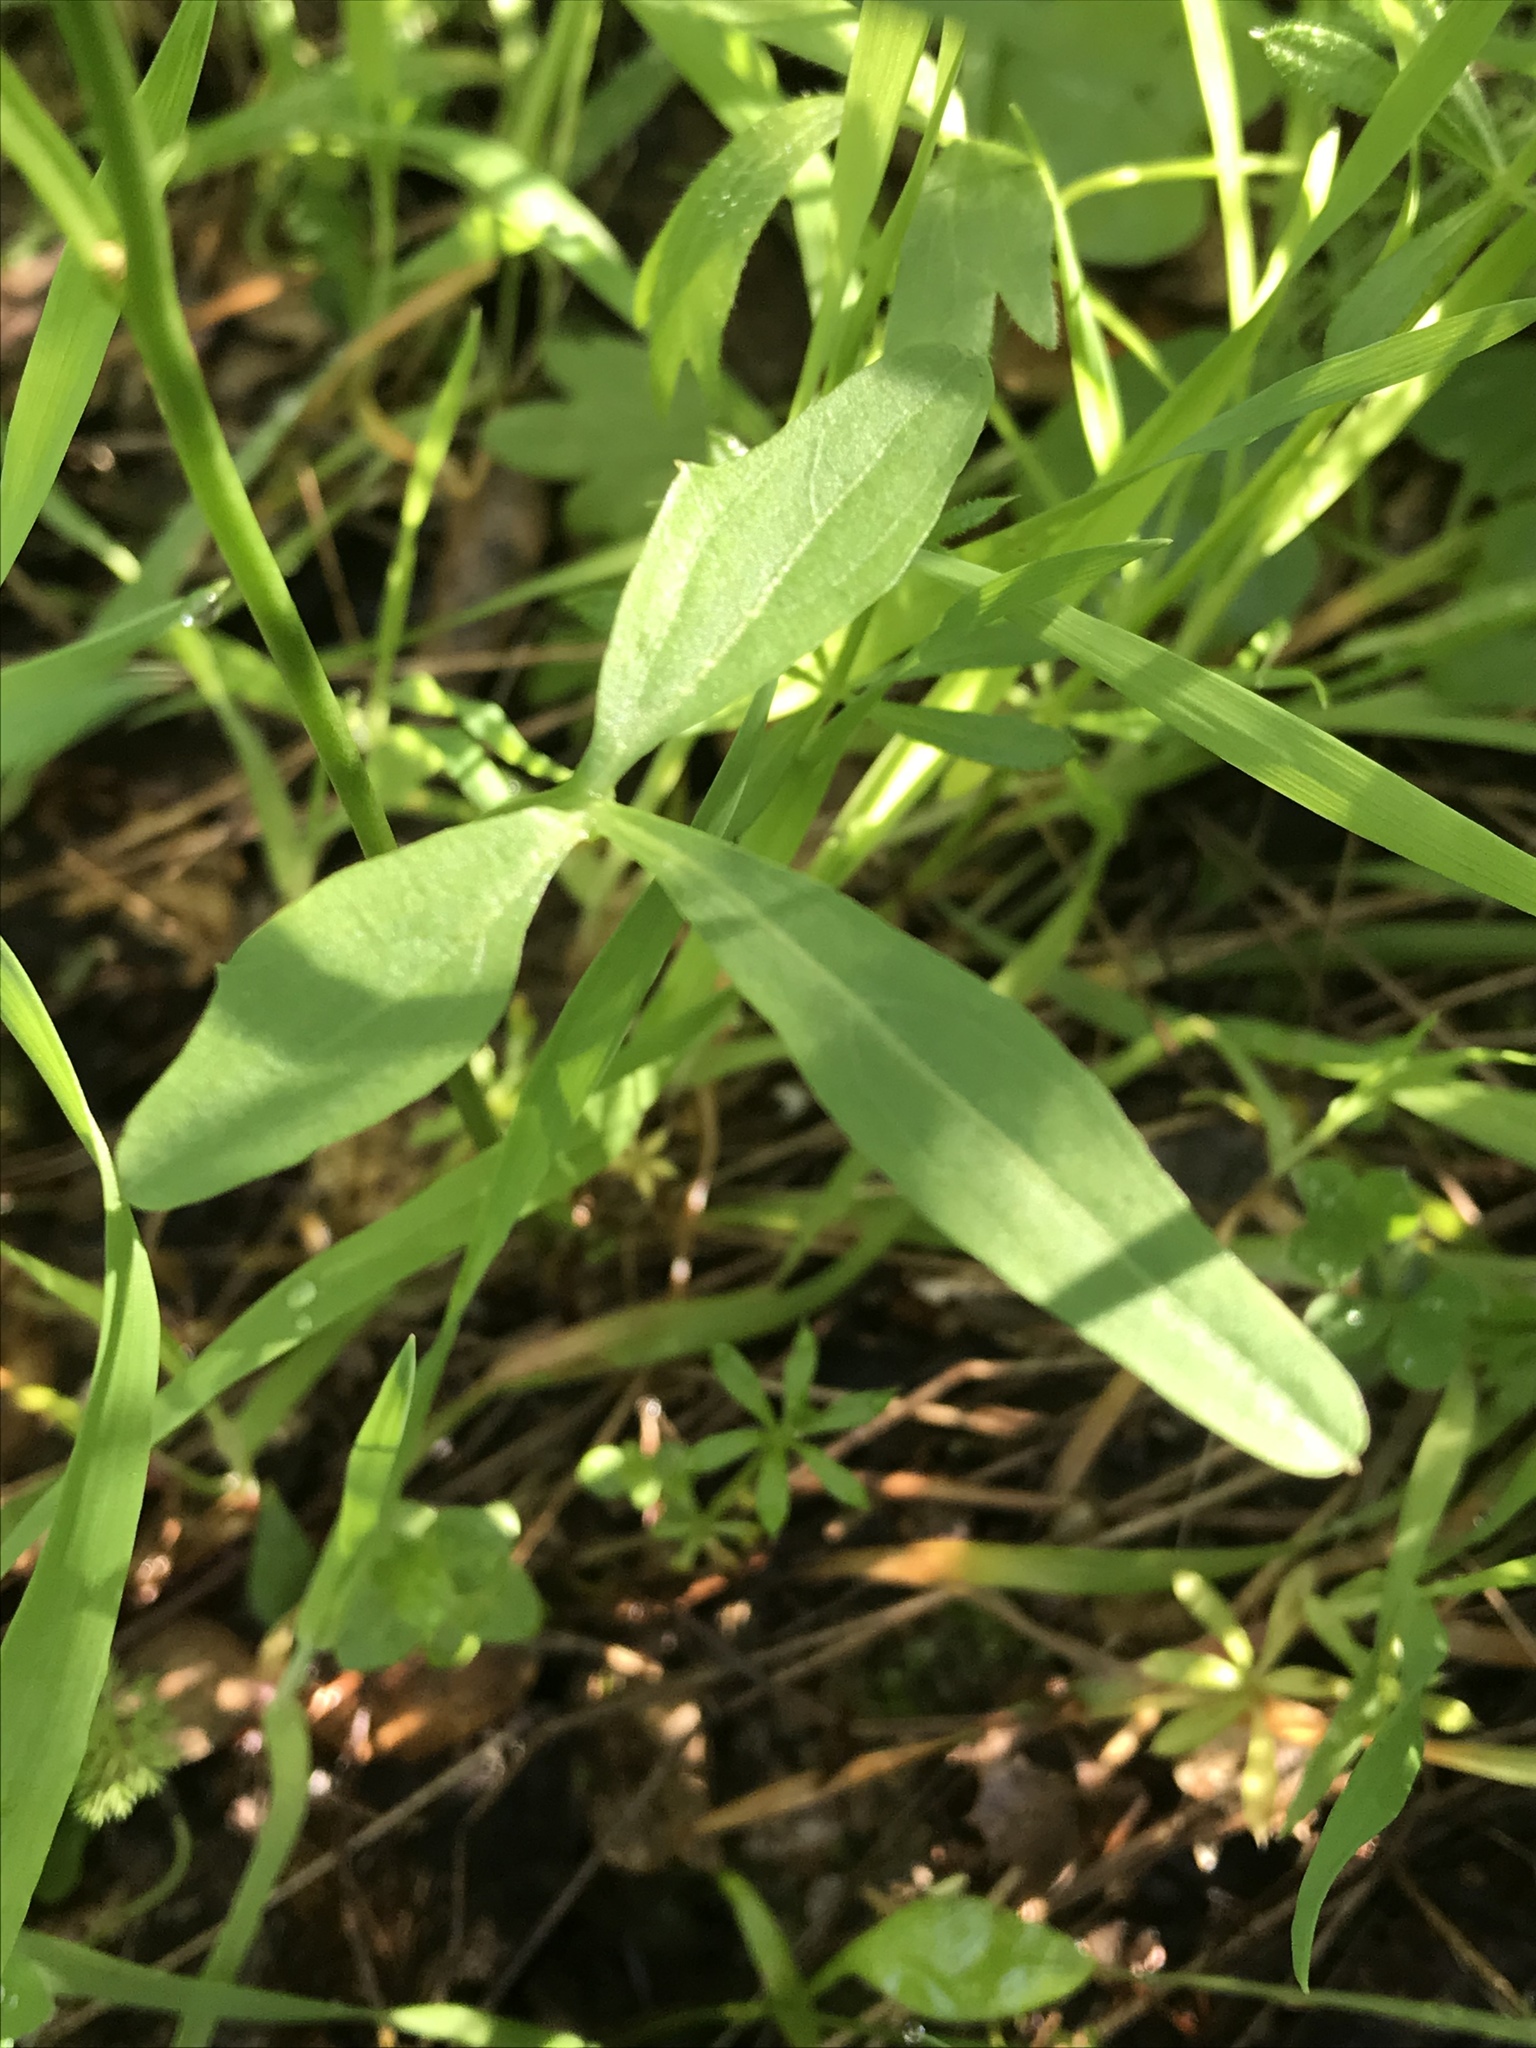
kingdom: Plantae
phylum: Tracheophyta
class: Magnoliopsida
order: Brassicales
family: Brassicaceae
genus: Cardamine
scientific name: Cardamine californica
